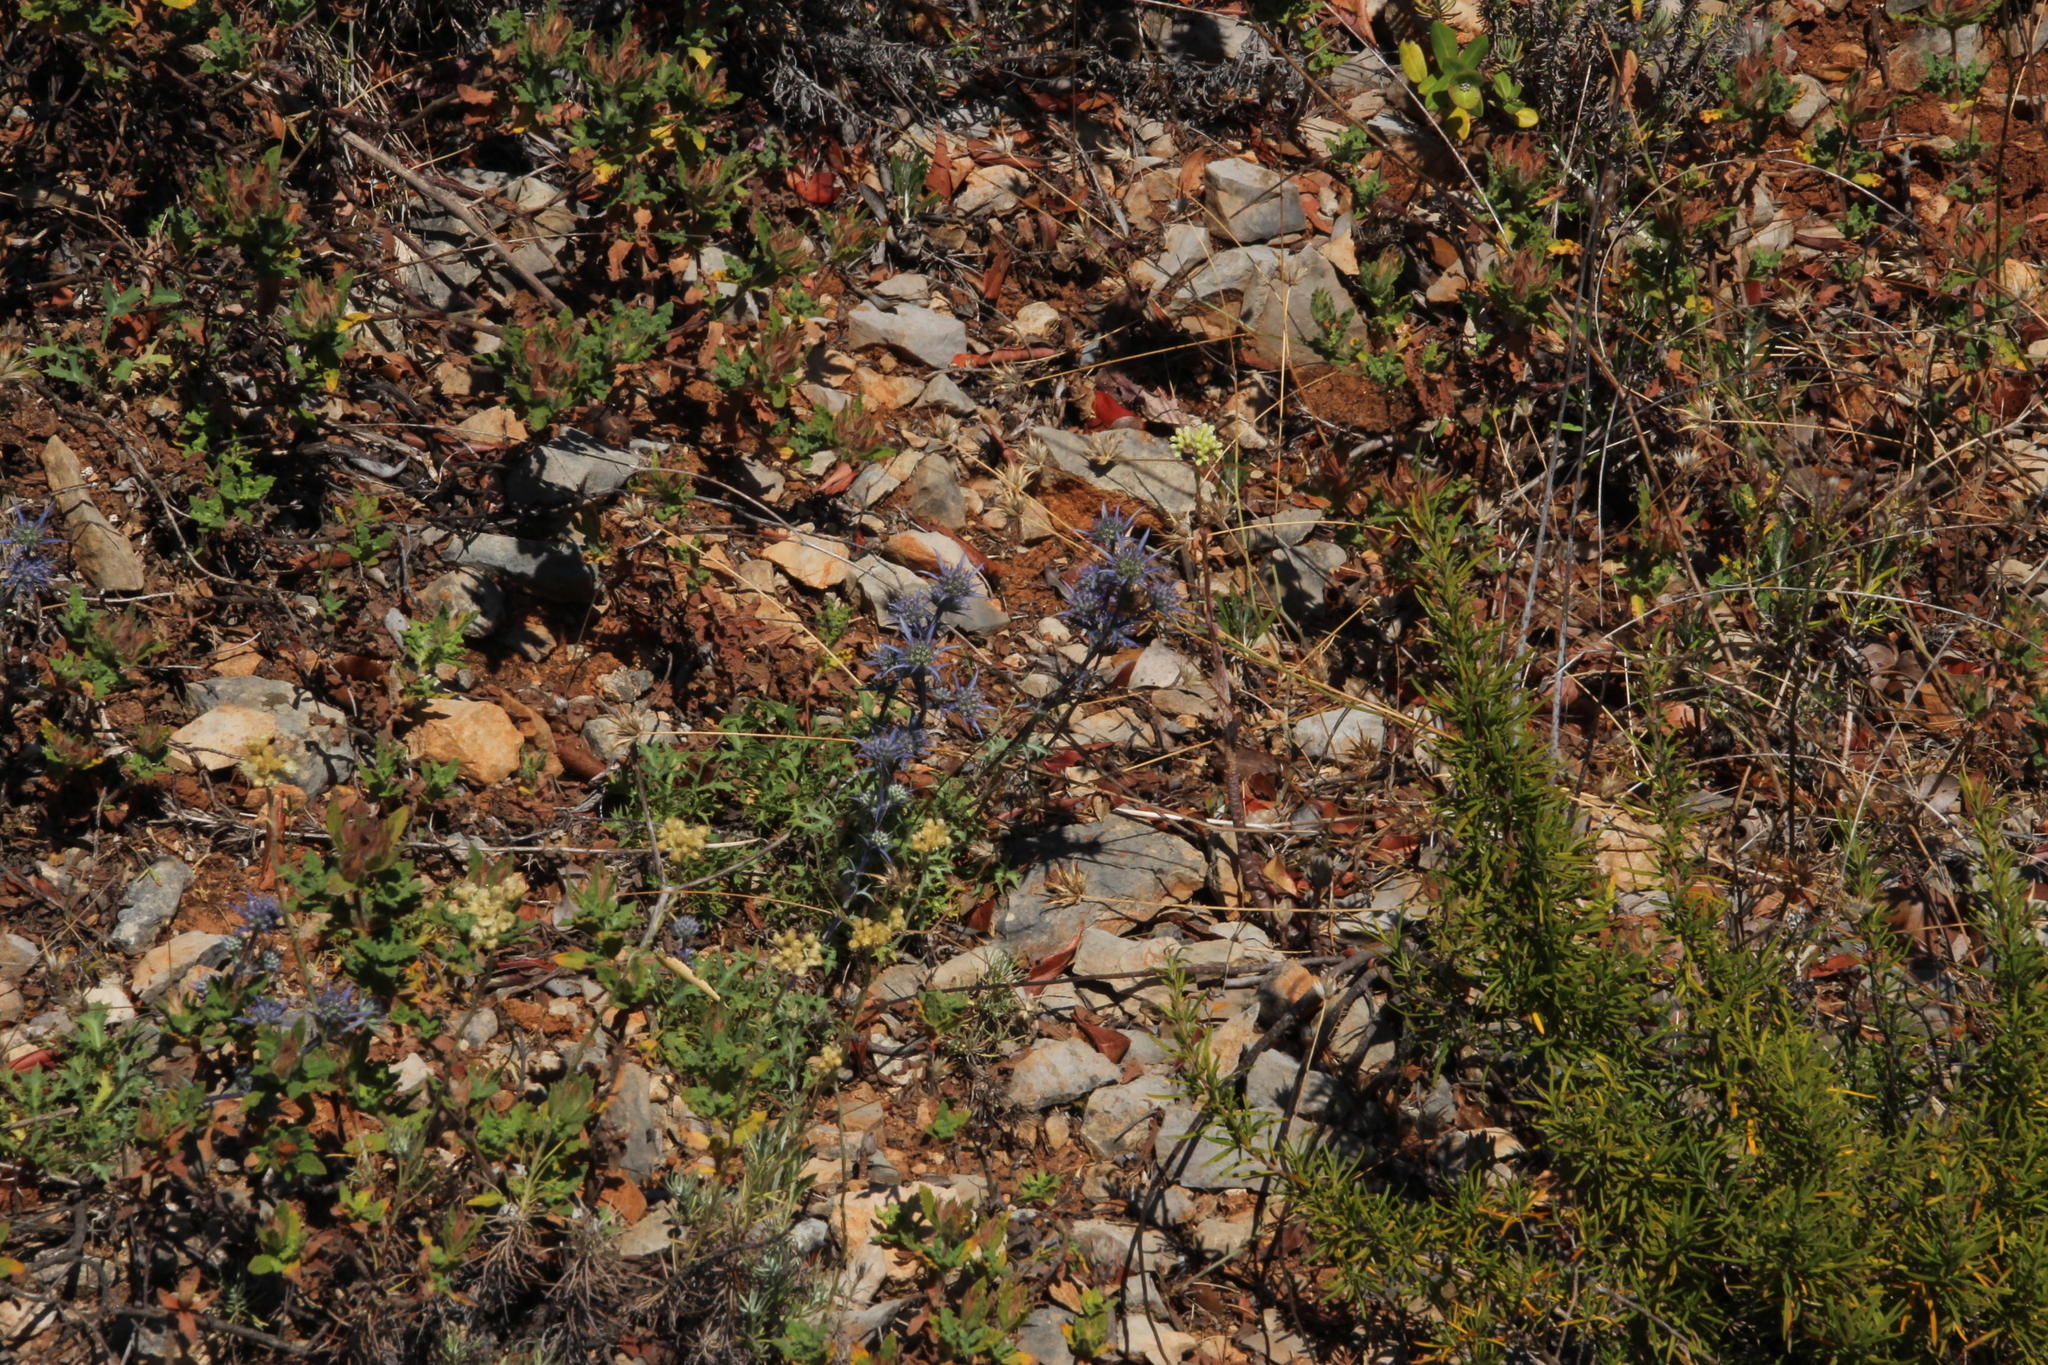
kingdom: Plantae
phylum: Tracheophyta
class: Magnoliopsida
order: Apiales
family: Apiaceae
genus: Eryngium
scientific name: Eryngium dilatatum
